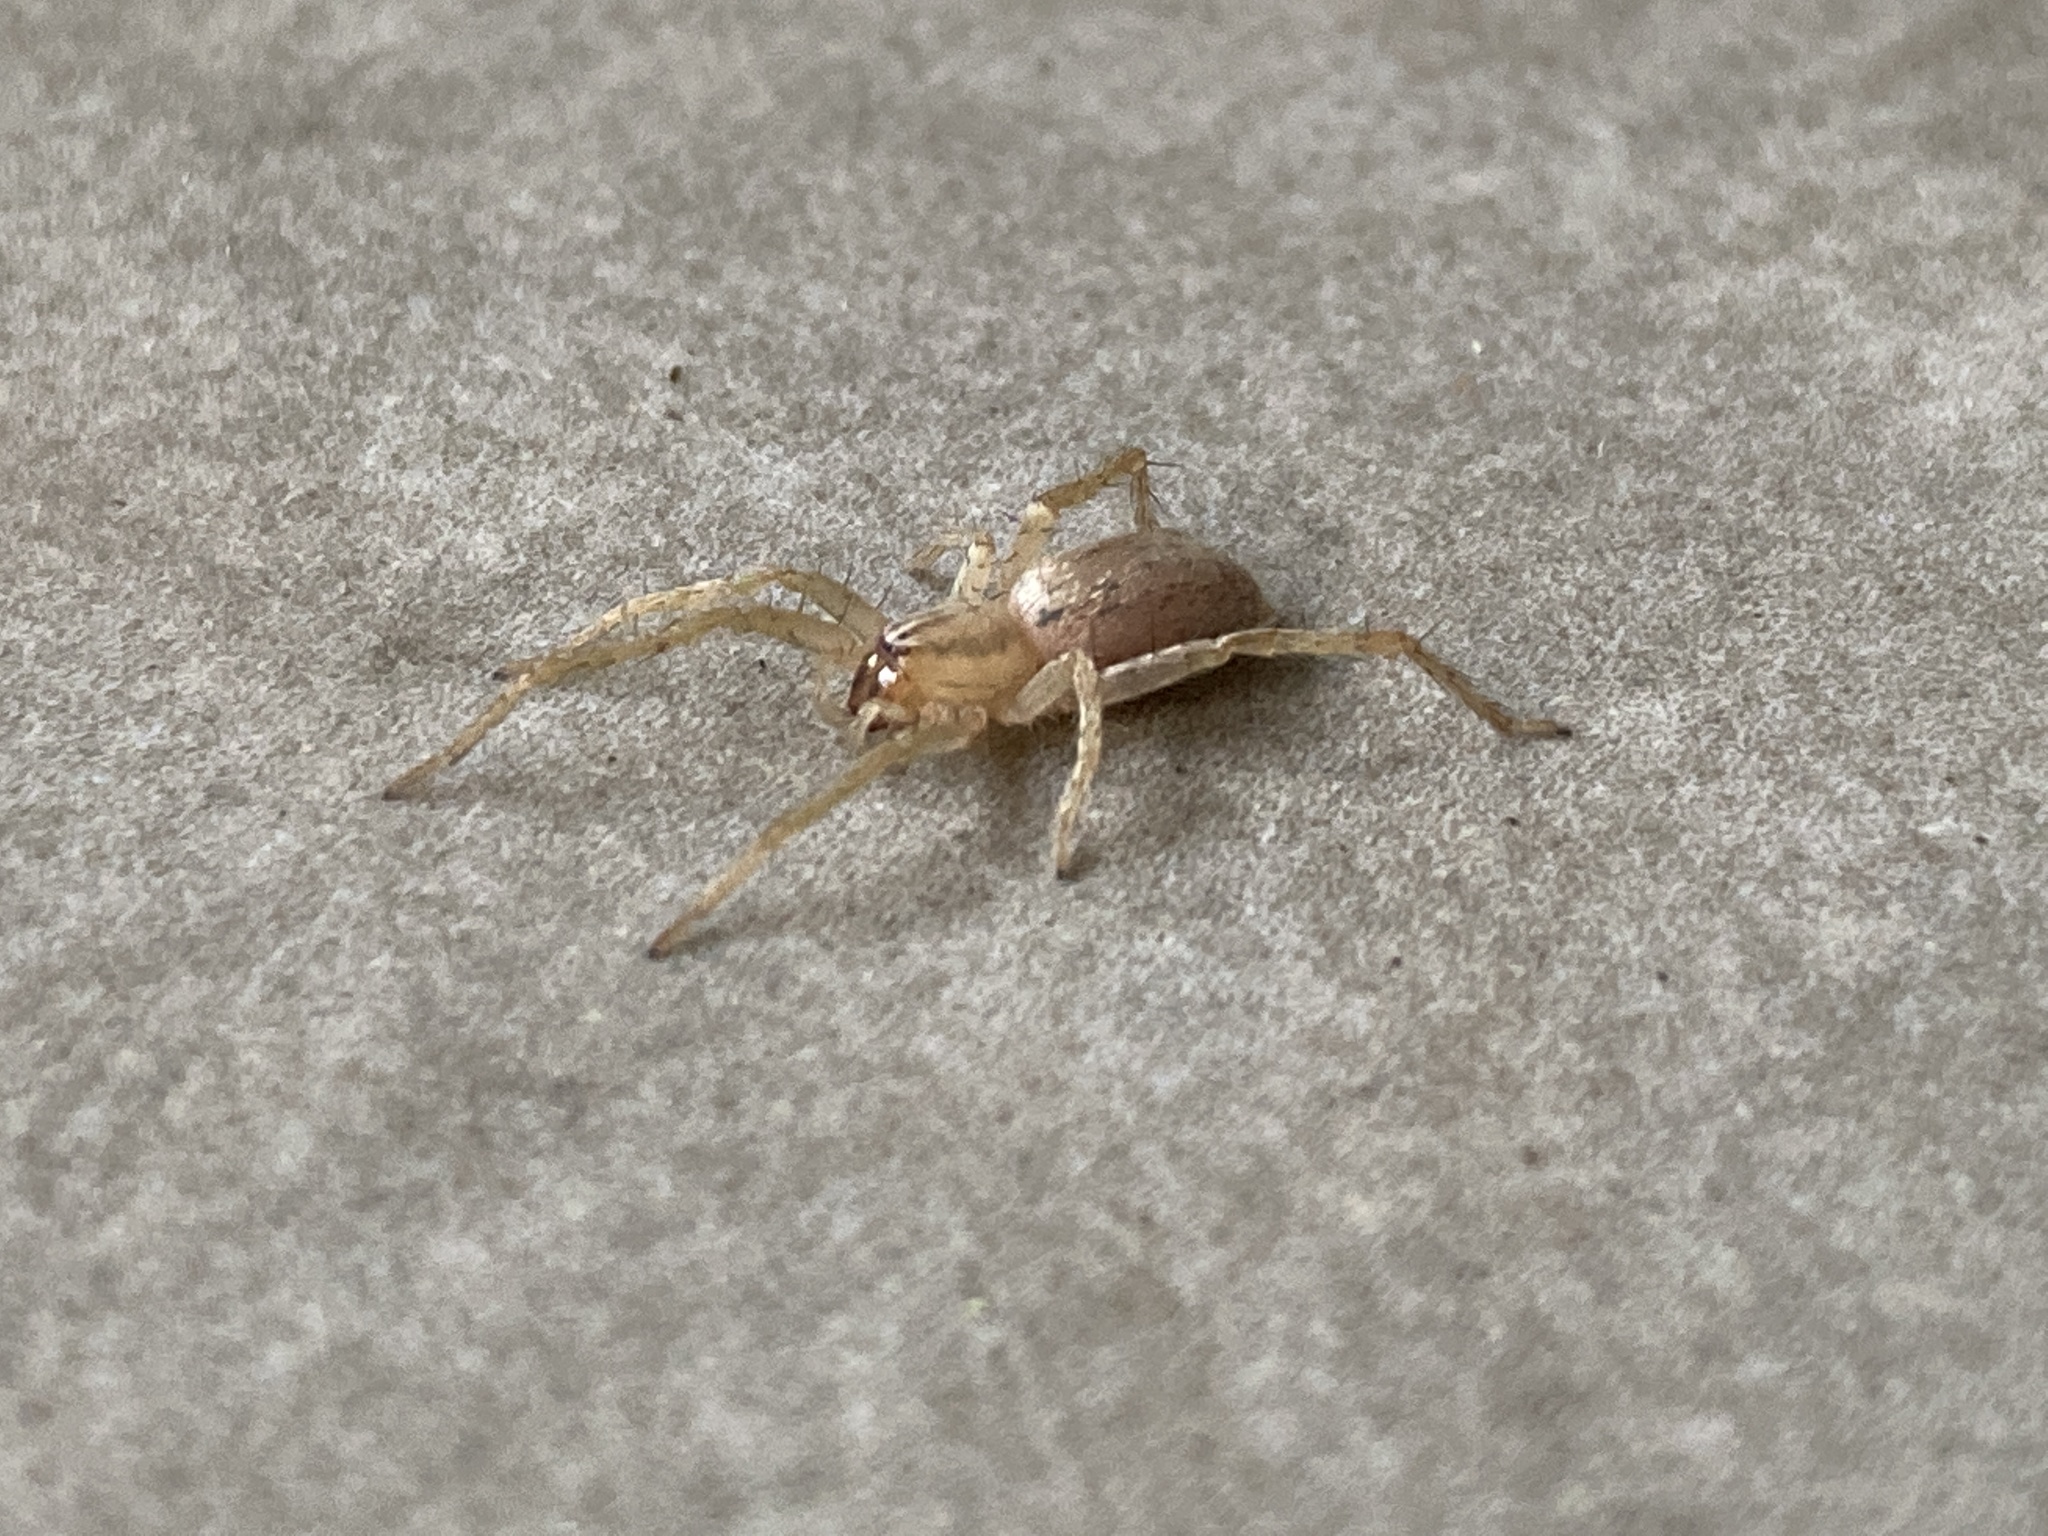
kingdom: Animalia
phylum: Arthropoda
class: Arachnida
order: Araneae
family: Anyphaenidae
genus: Hibana
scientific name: Hibana gracilis
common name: Garden ghost spider
